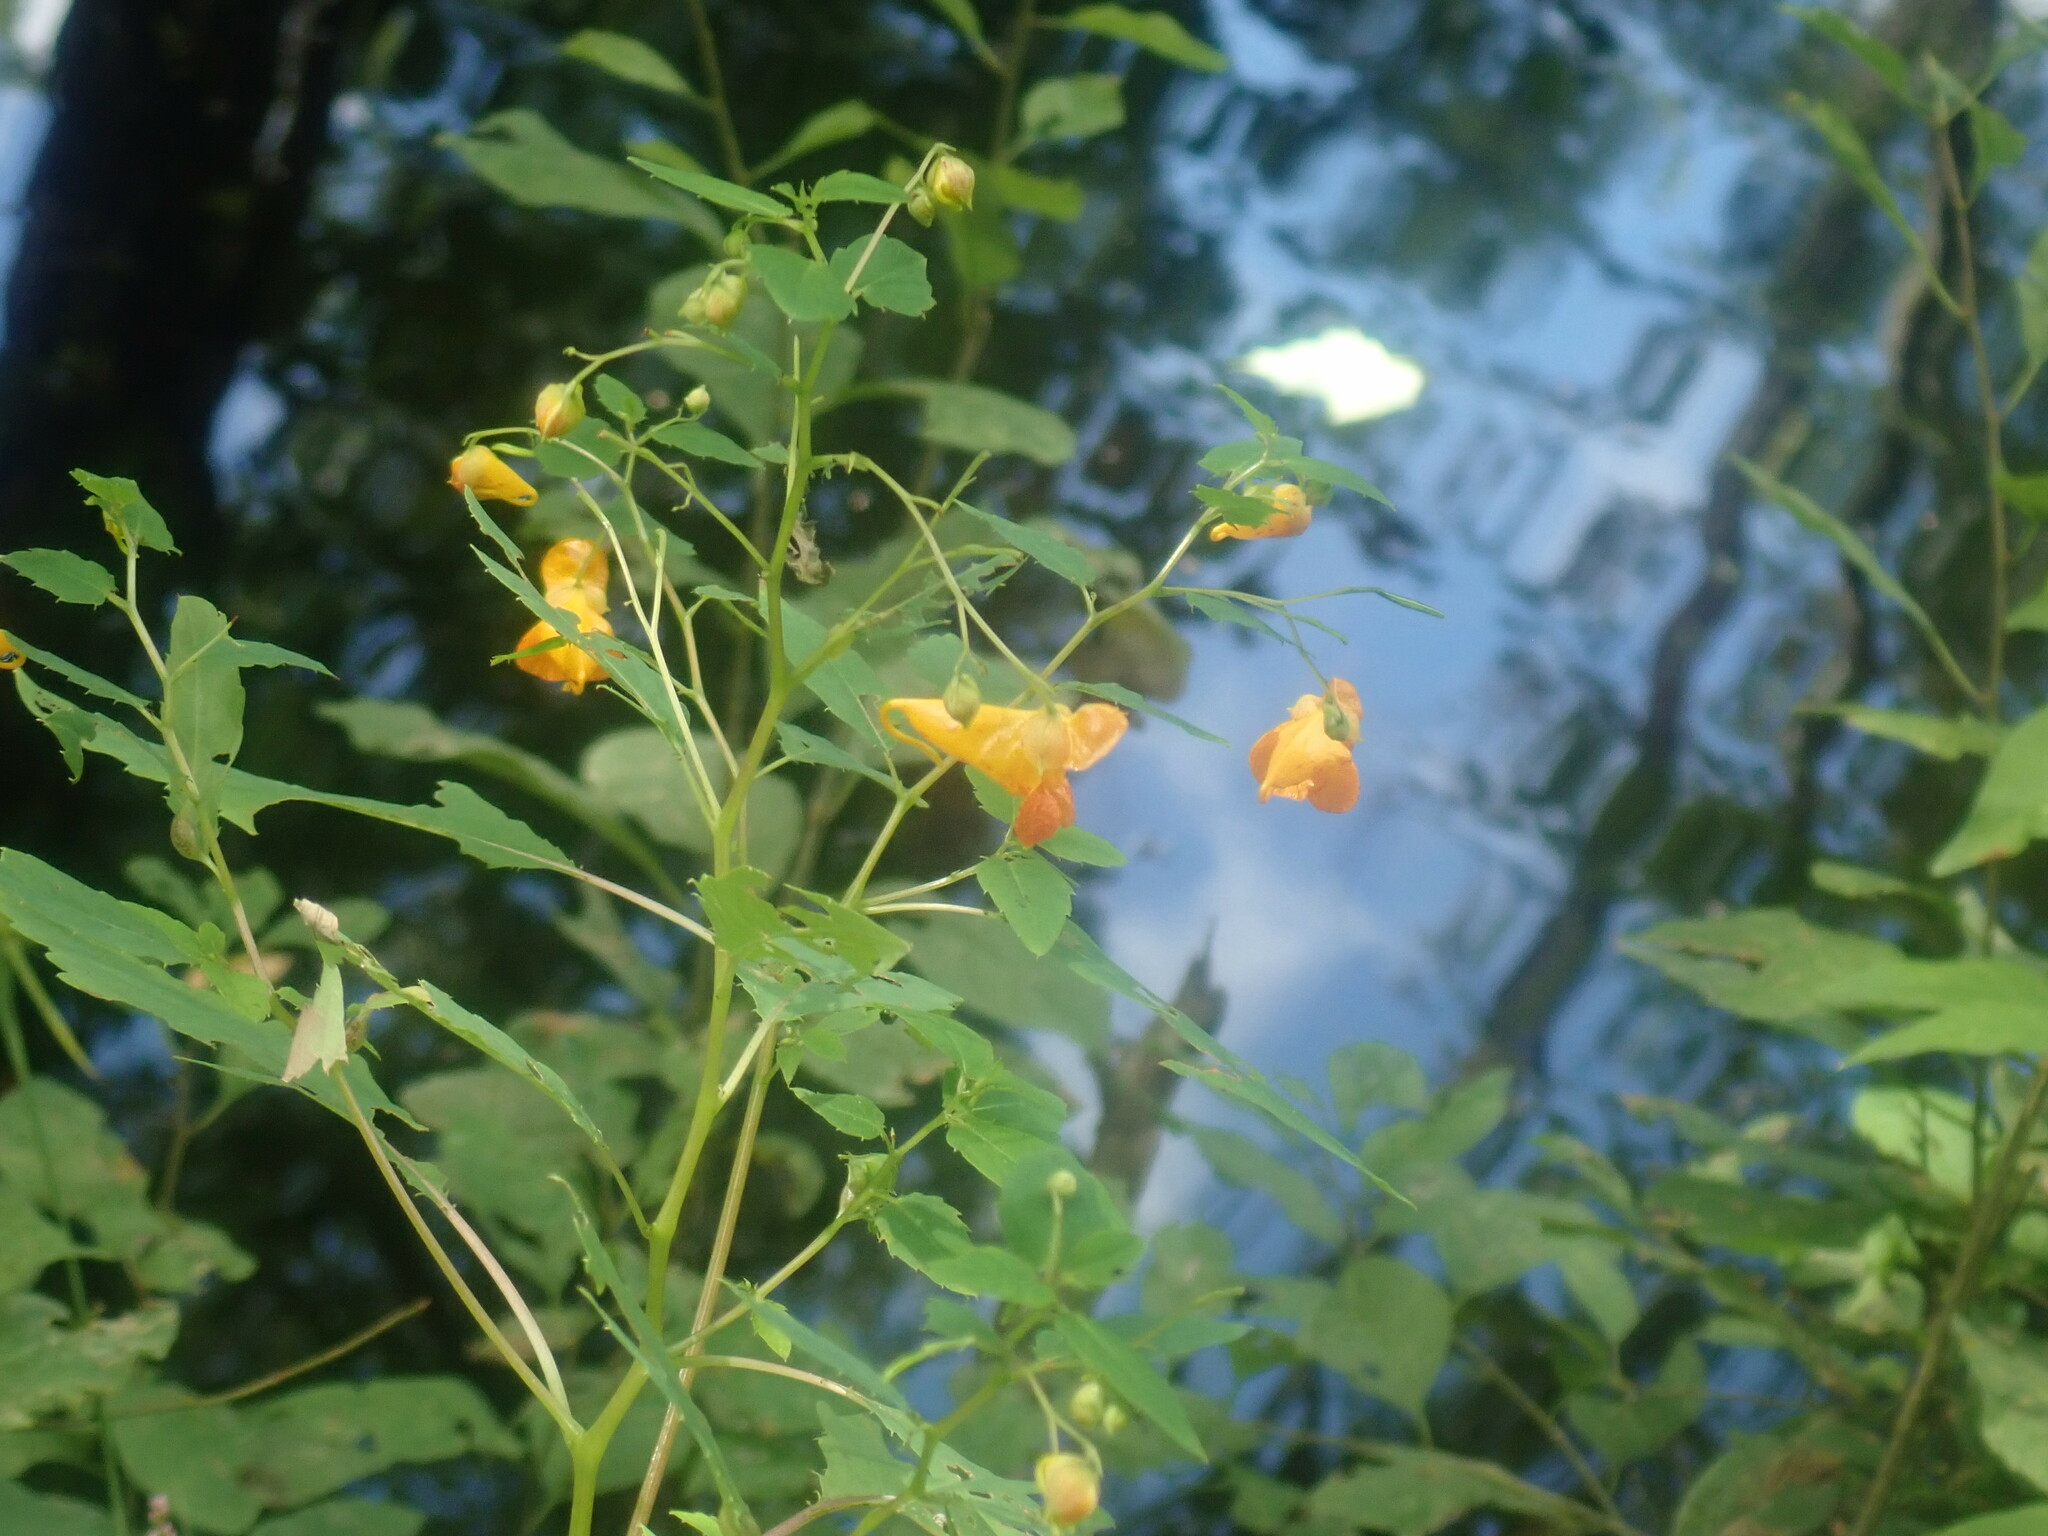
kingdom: Plantae
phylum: Tracheophyta
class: Magnoliopsida
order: Ericales
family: Balsaminaceae
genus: Impatiens
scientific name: Impatiens capensis
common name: Orange balsam
